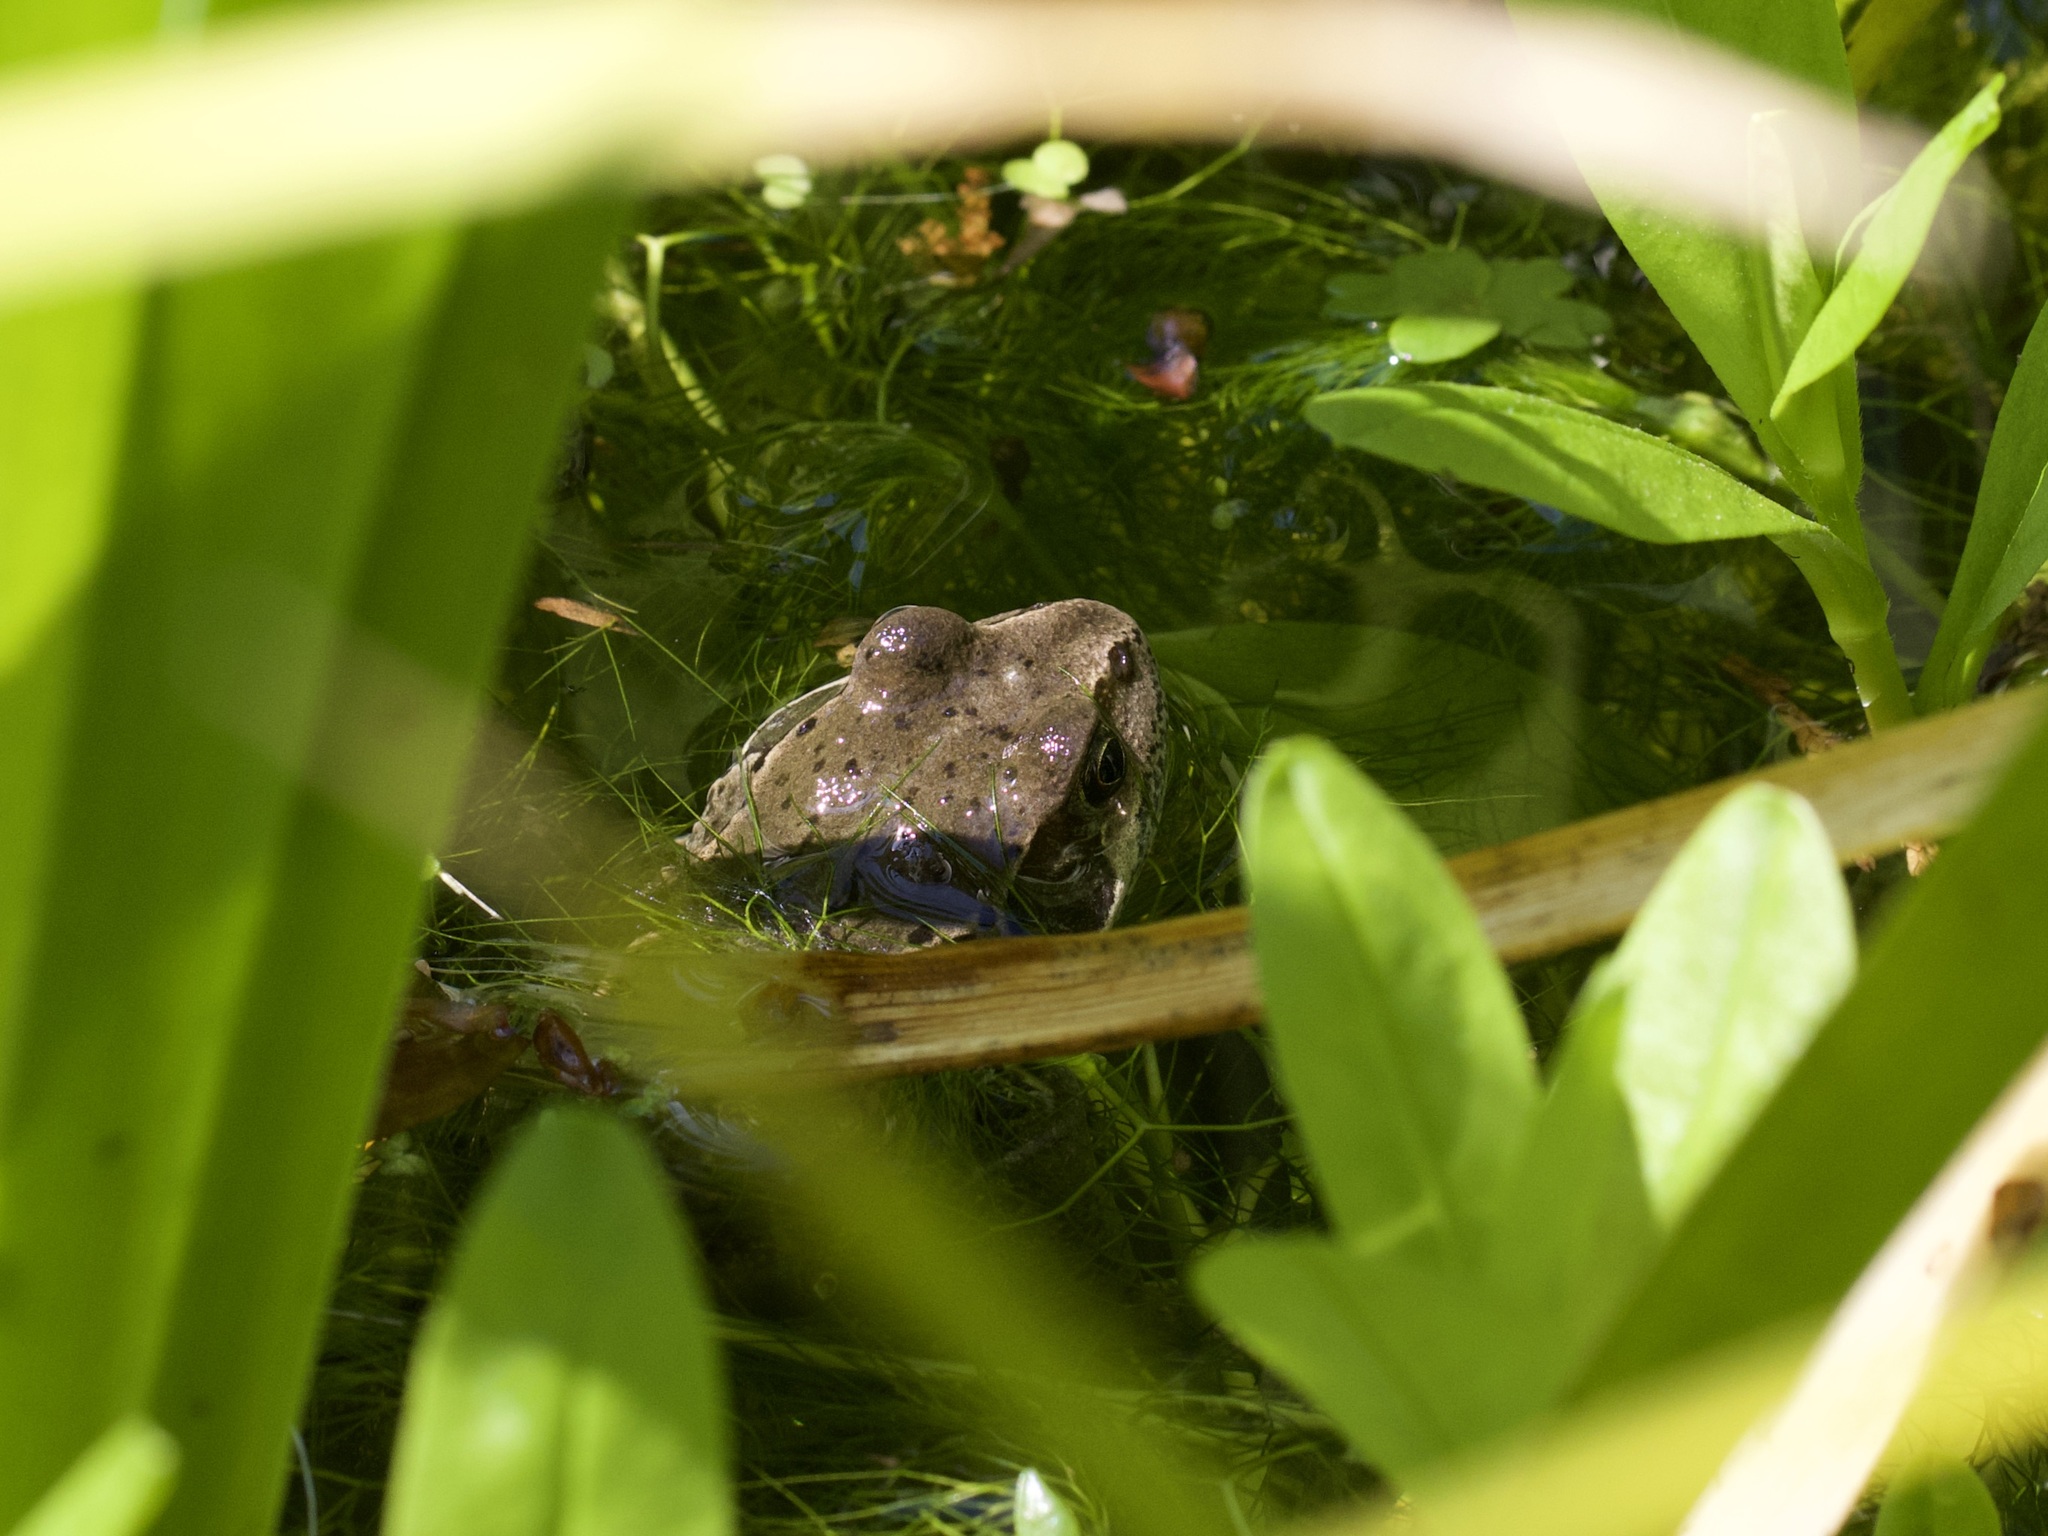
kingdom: Animalia
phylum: Chordata
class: Amphibia
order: Anura
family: Ranidae
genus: Rana
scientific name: Rana temporaria
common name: Common frog
